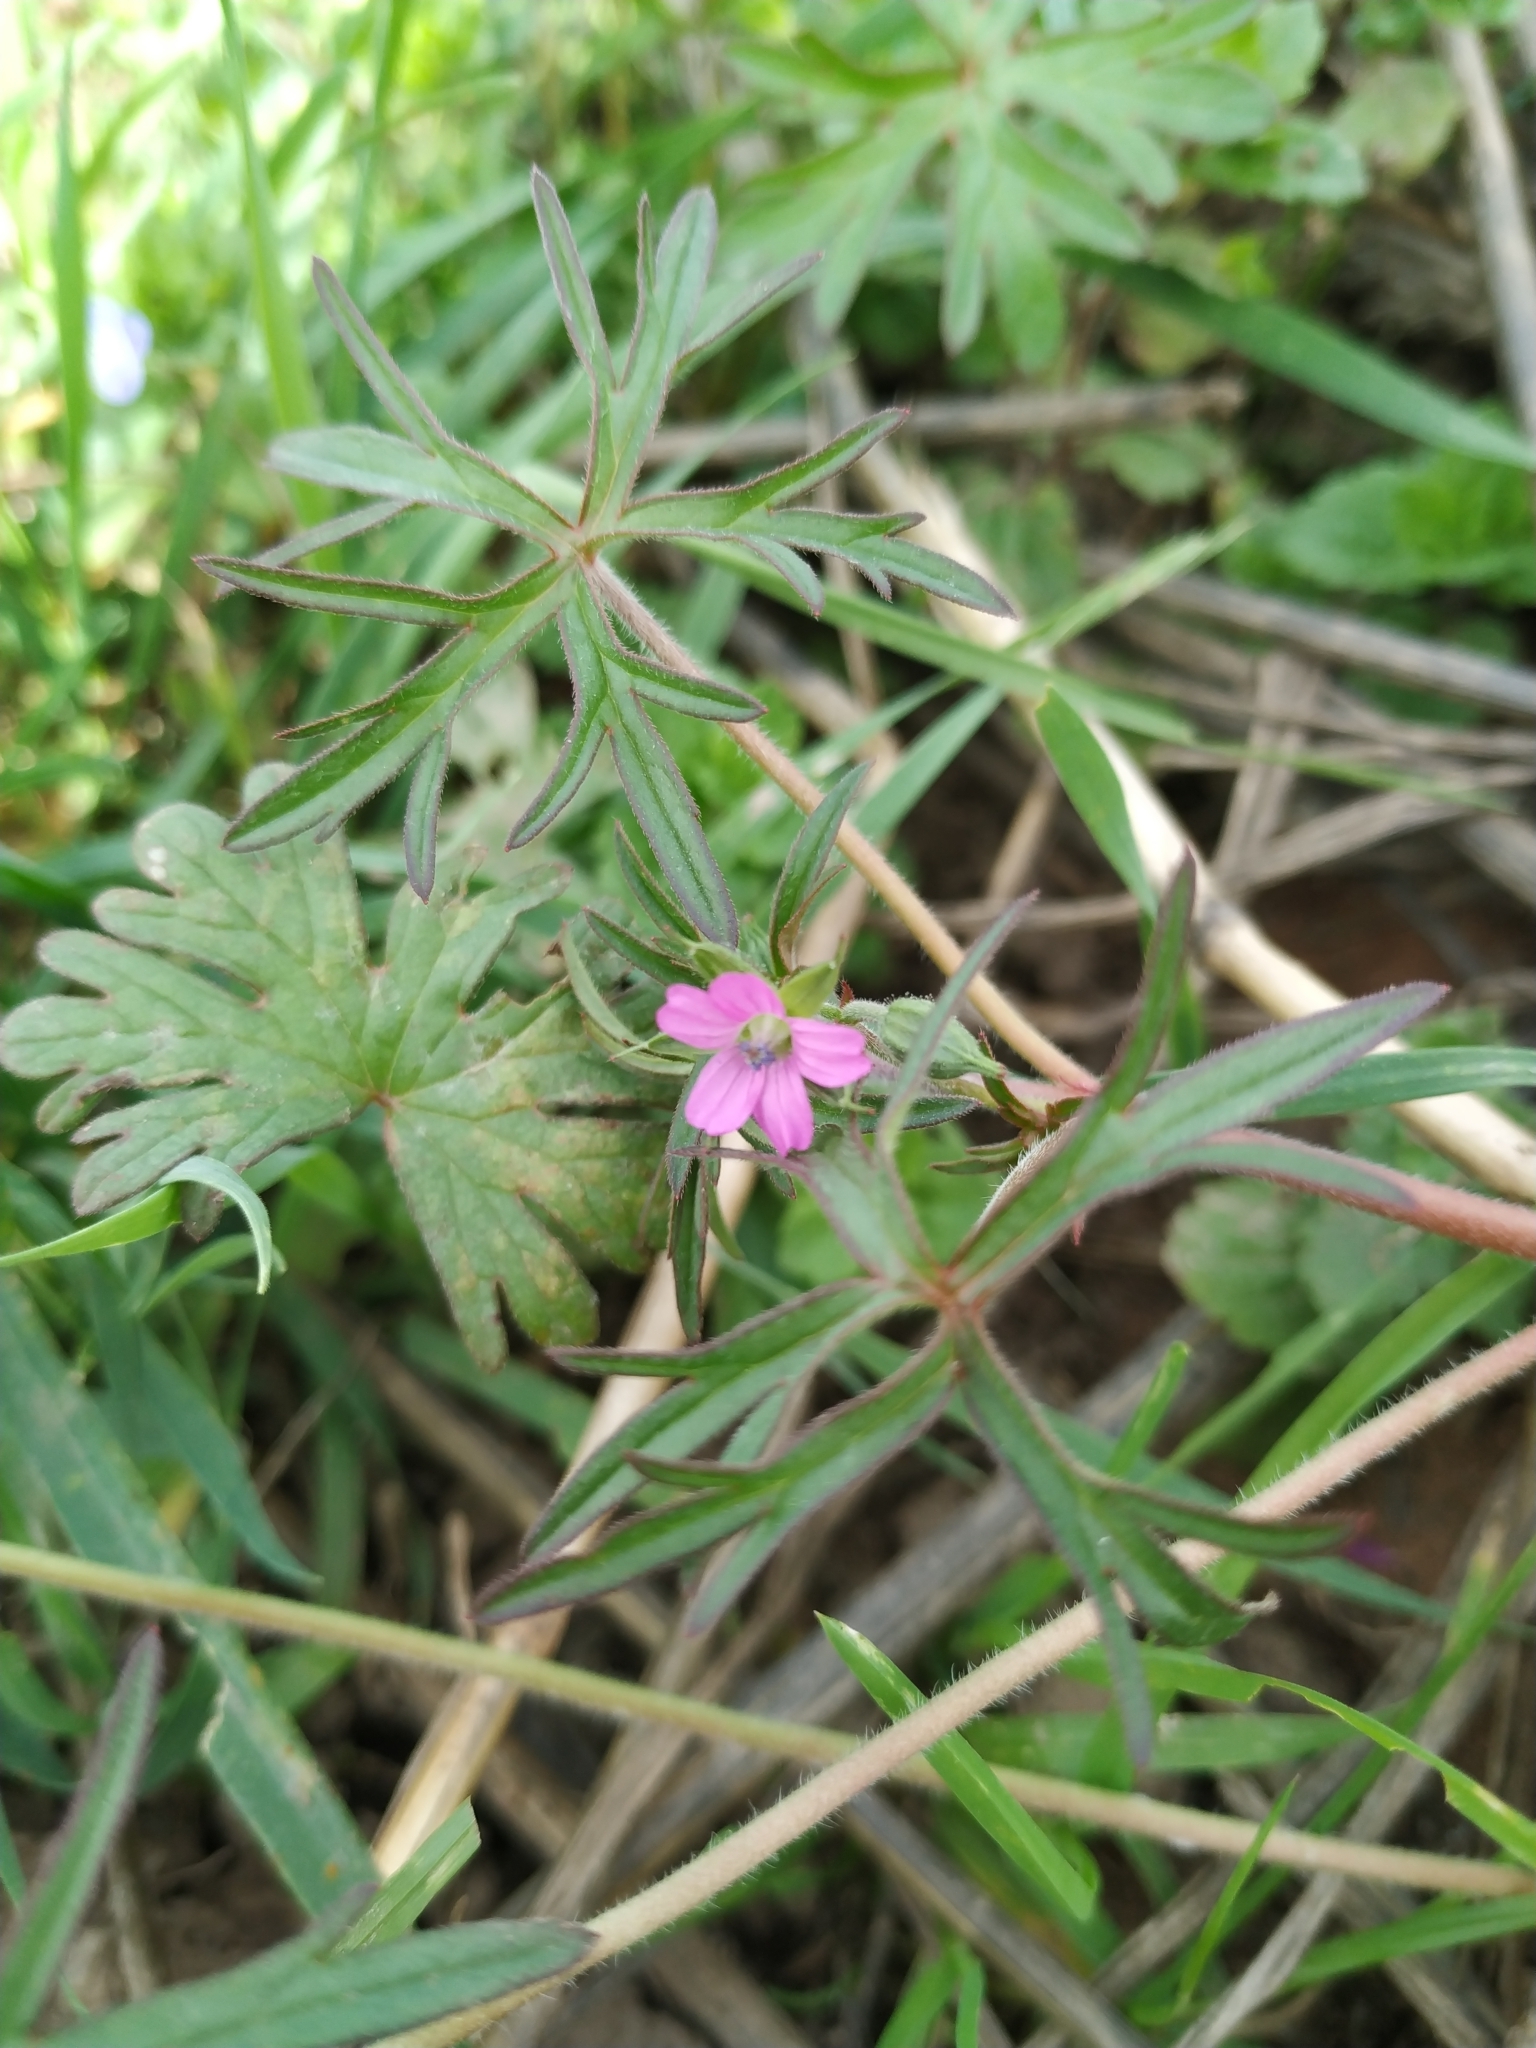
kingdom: Plantae
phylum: Tracheophyta
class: Magnoliopsida
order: Geraniales
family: Geraniaceae
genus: Geranium
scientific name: Geranium dissectum
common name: Cut-leaved crane's-bill
